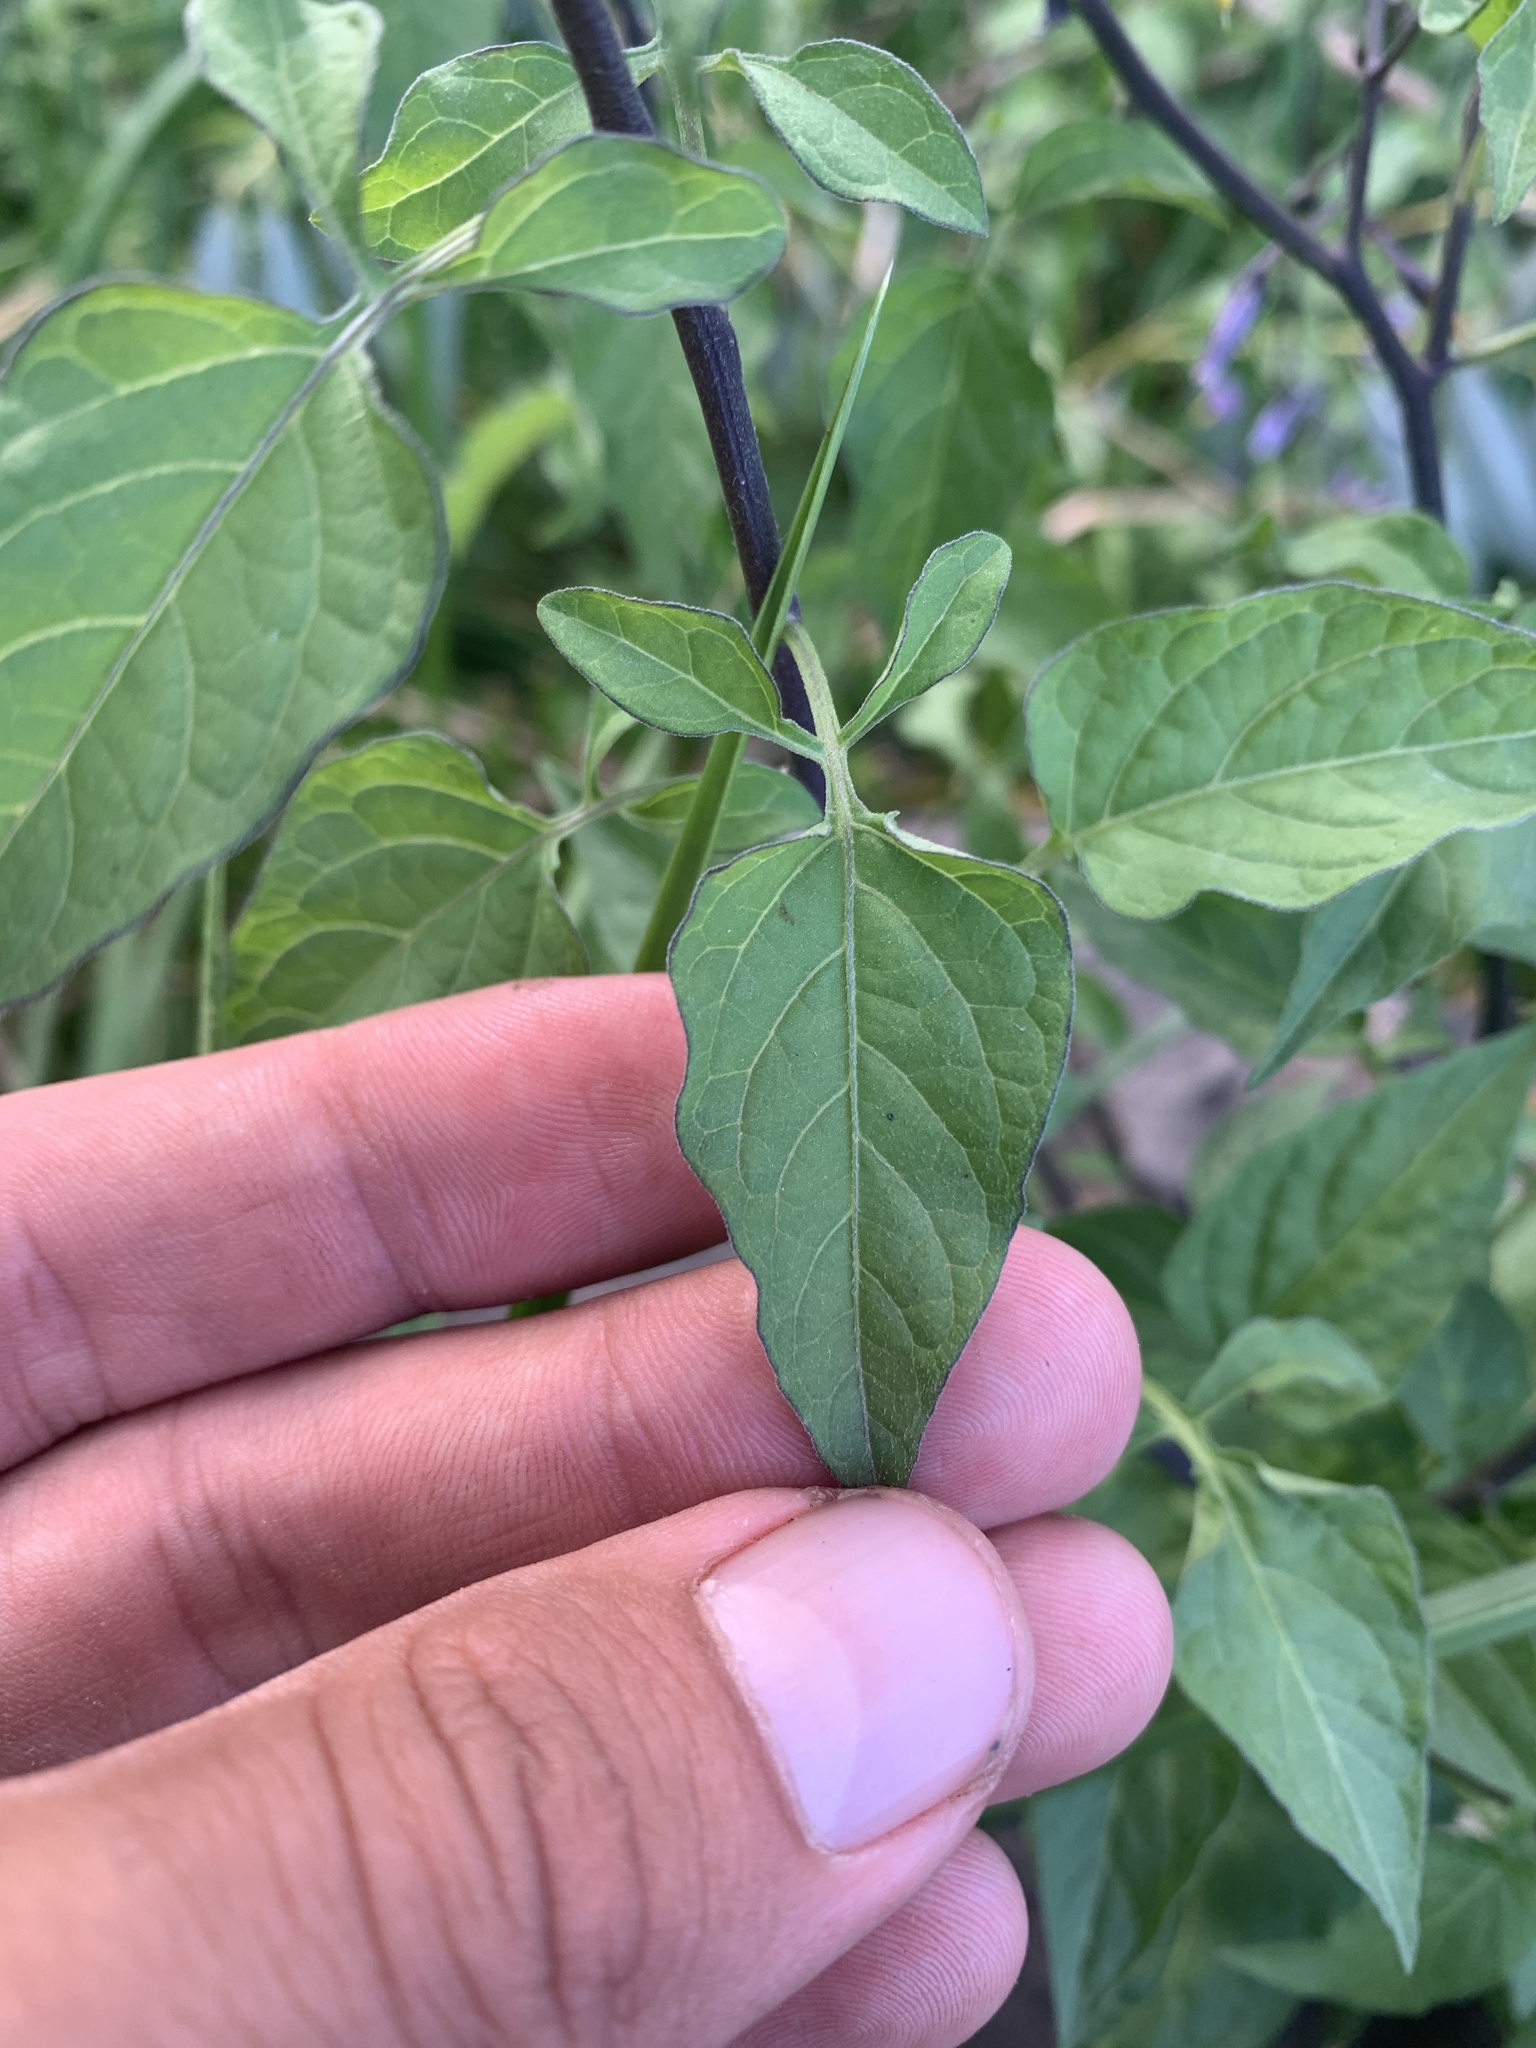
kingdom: Plantae
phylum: Tracheophyta
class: Magnoliopsida
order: Solanales
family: Solanaceae
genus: Solanum
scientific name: Solanum dulcamara
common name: Climbing nightshade
